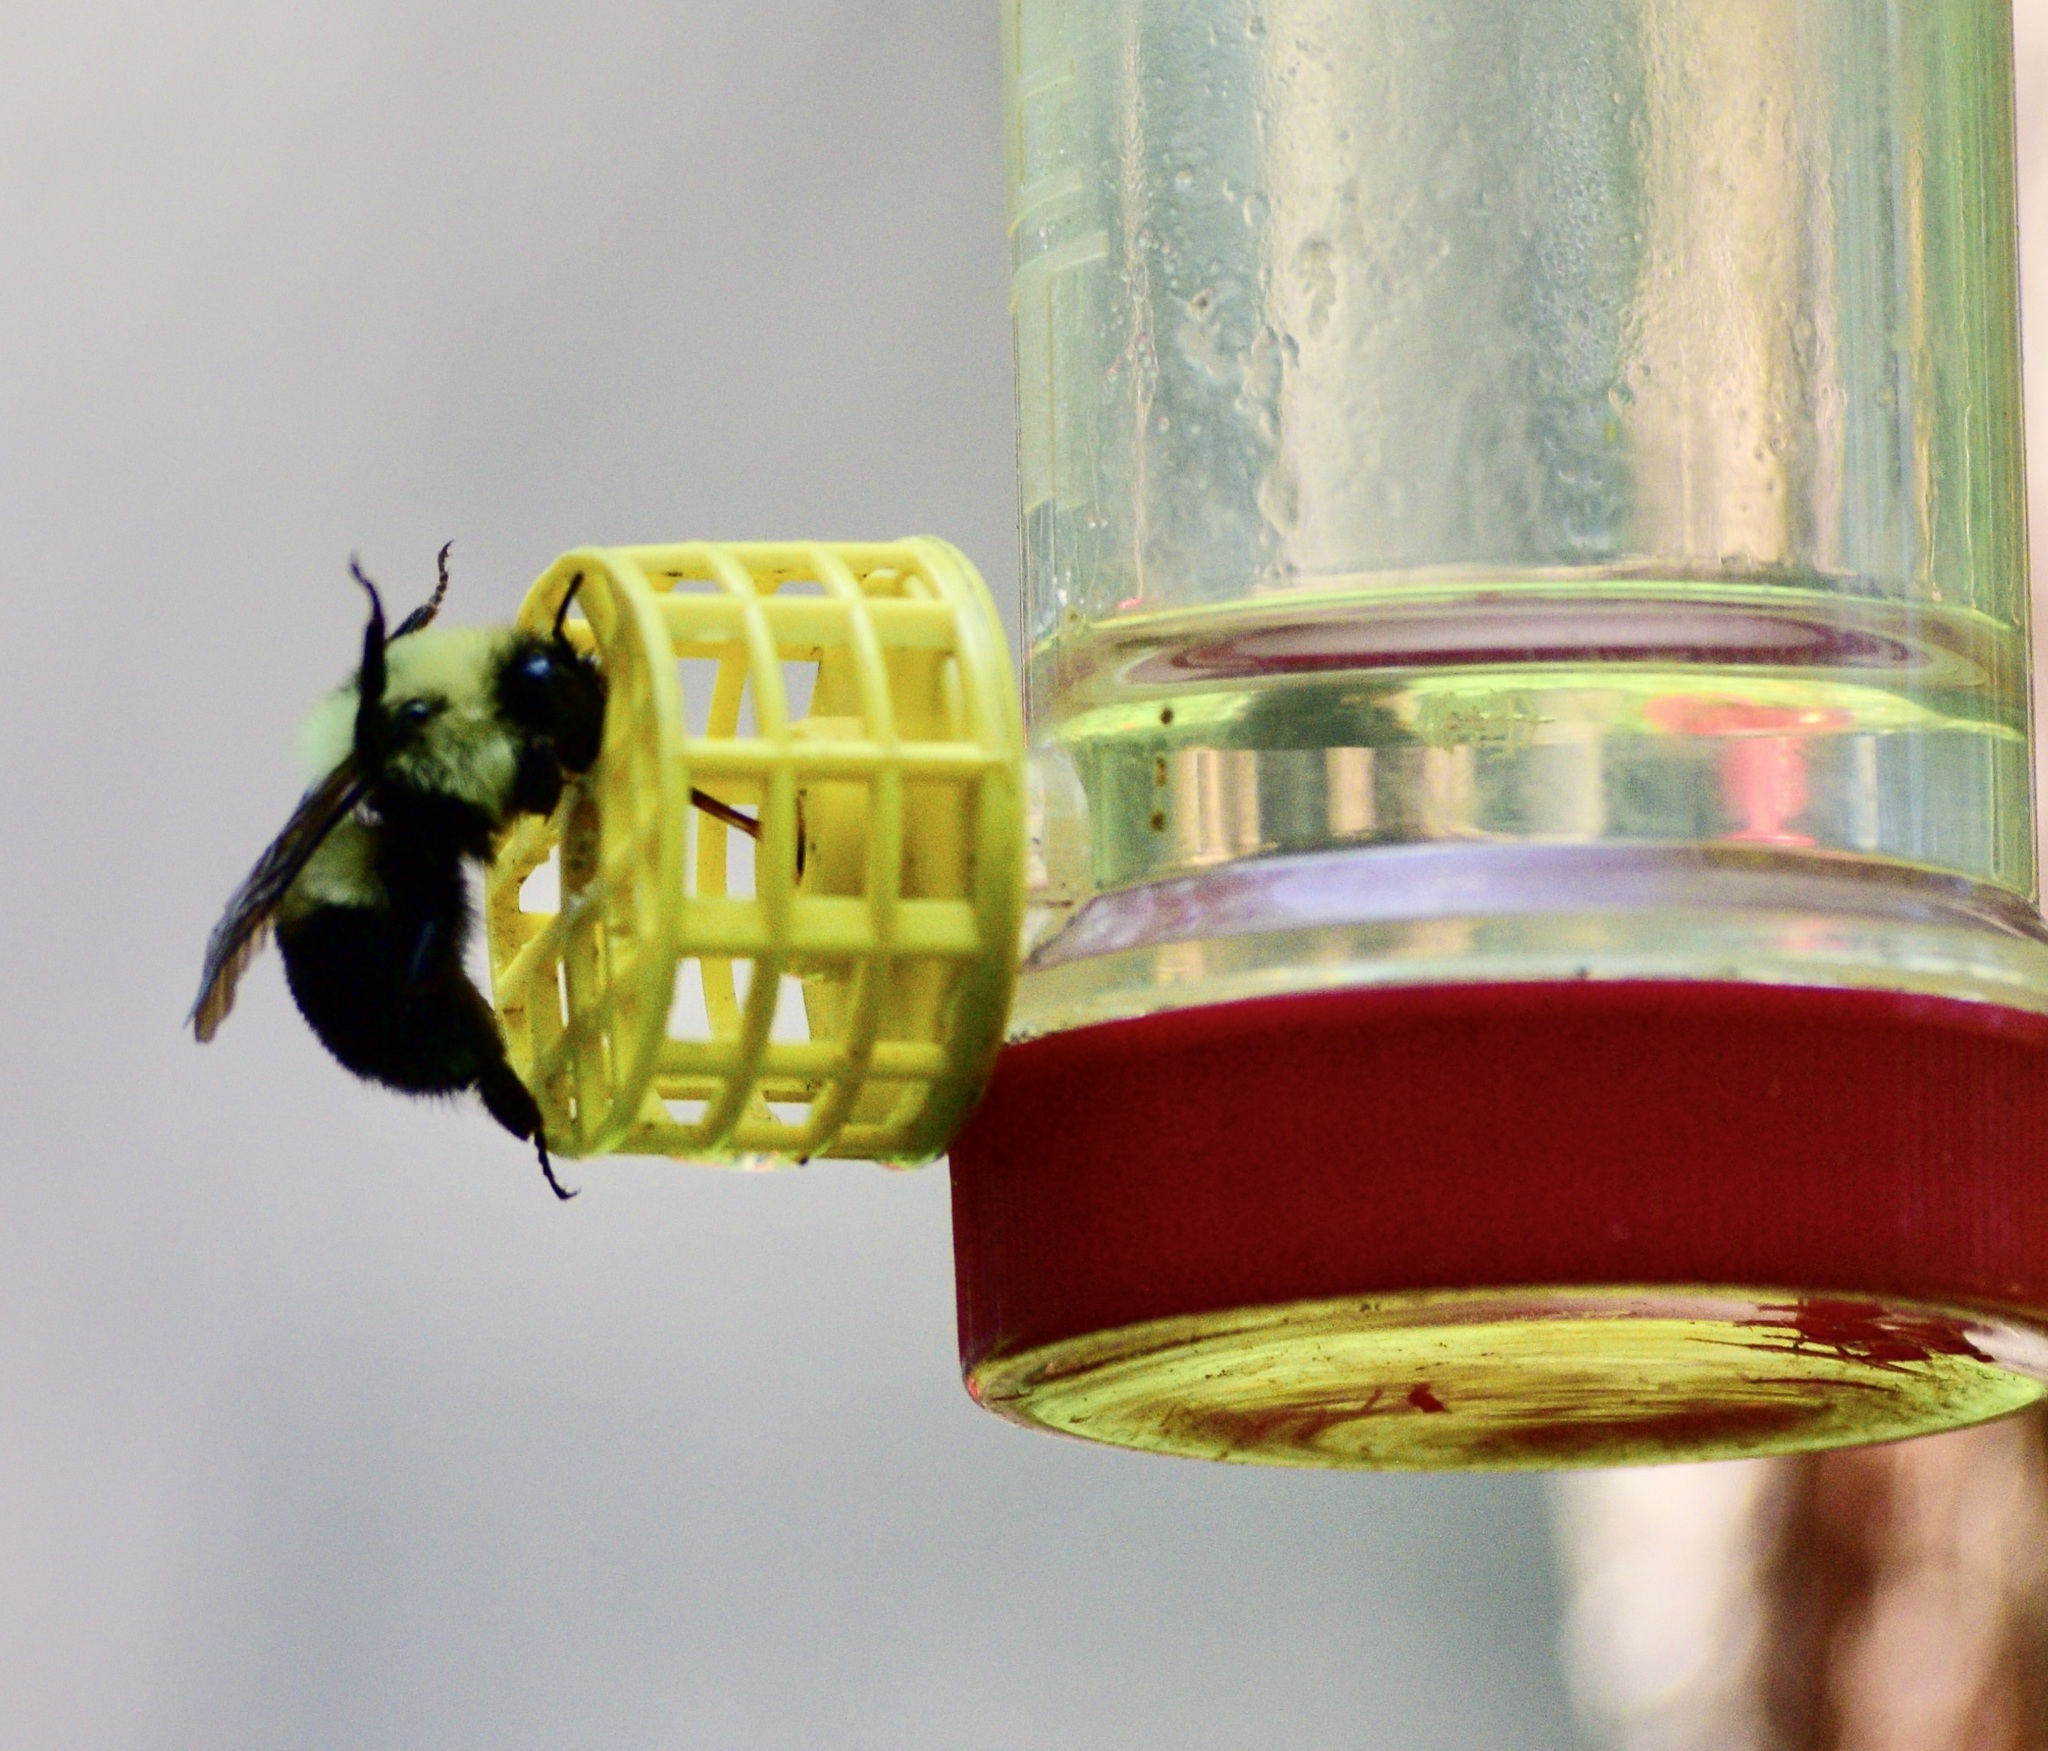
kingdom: Animalia
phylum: Arthropoda
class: Insecta
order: Hymenoptera
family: Apidae
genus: Bombus
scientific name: Bombus bimaculatus
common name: Two-spotted bumble bee
